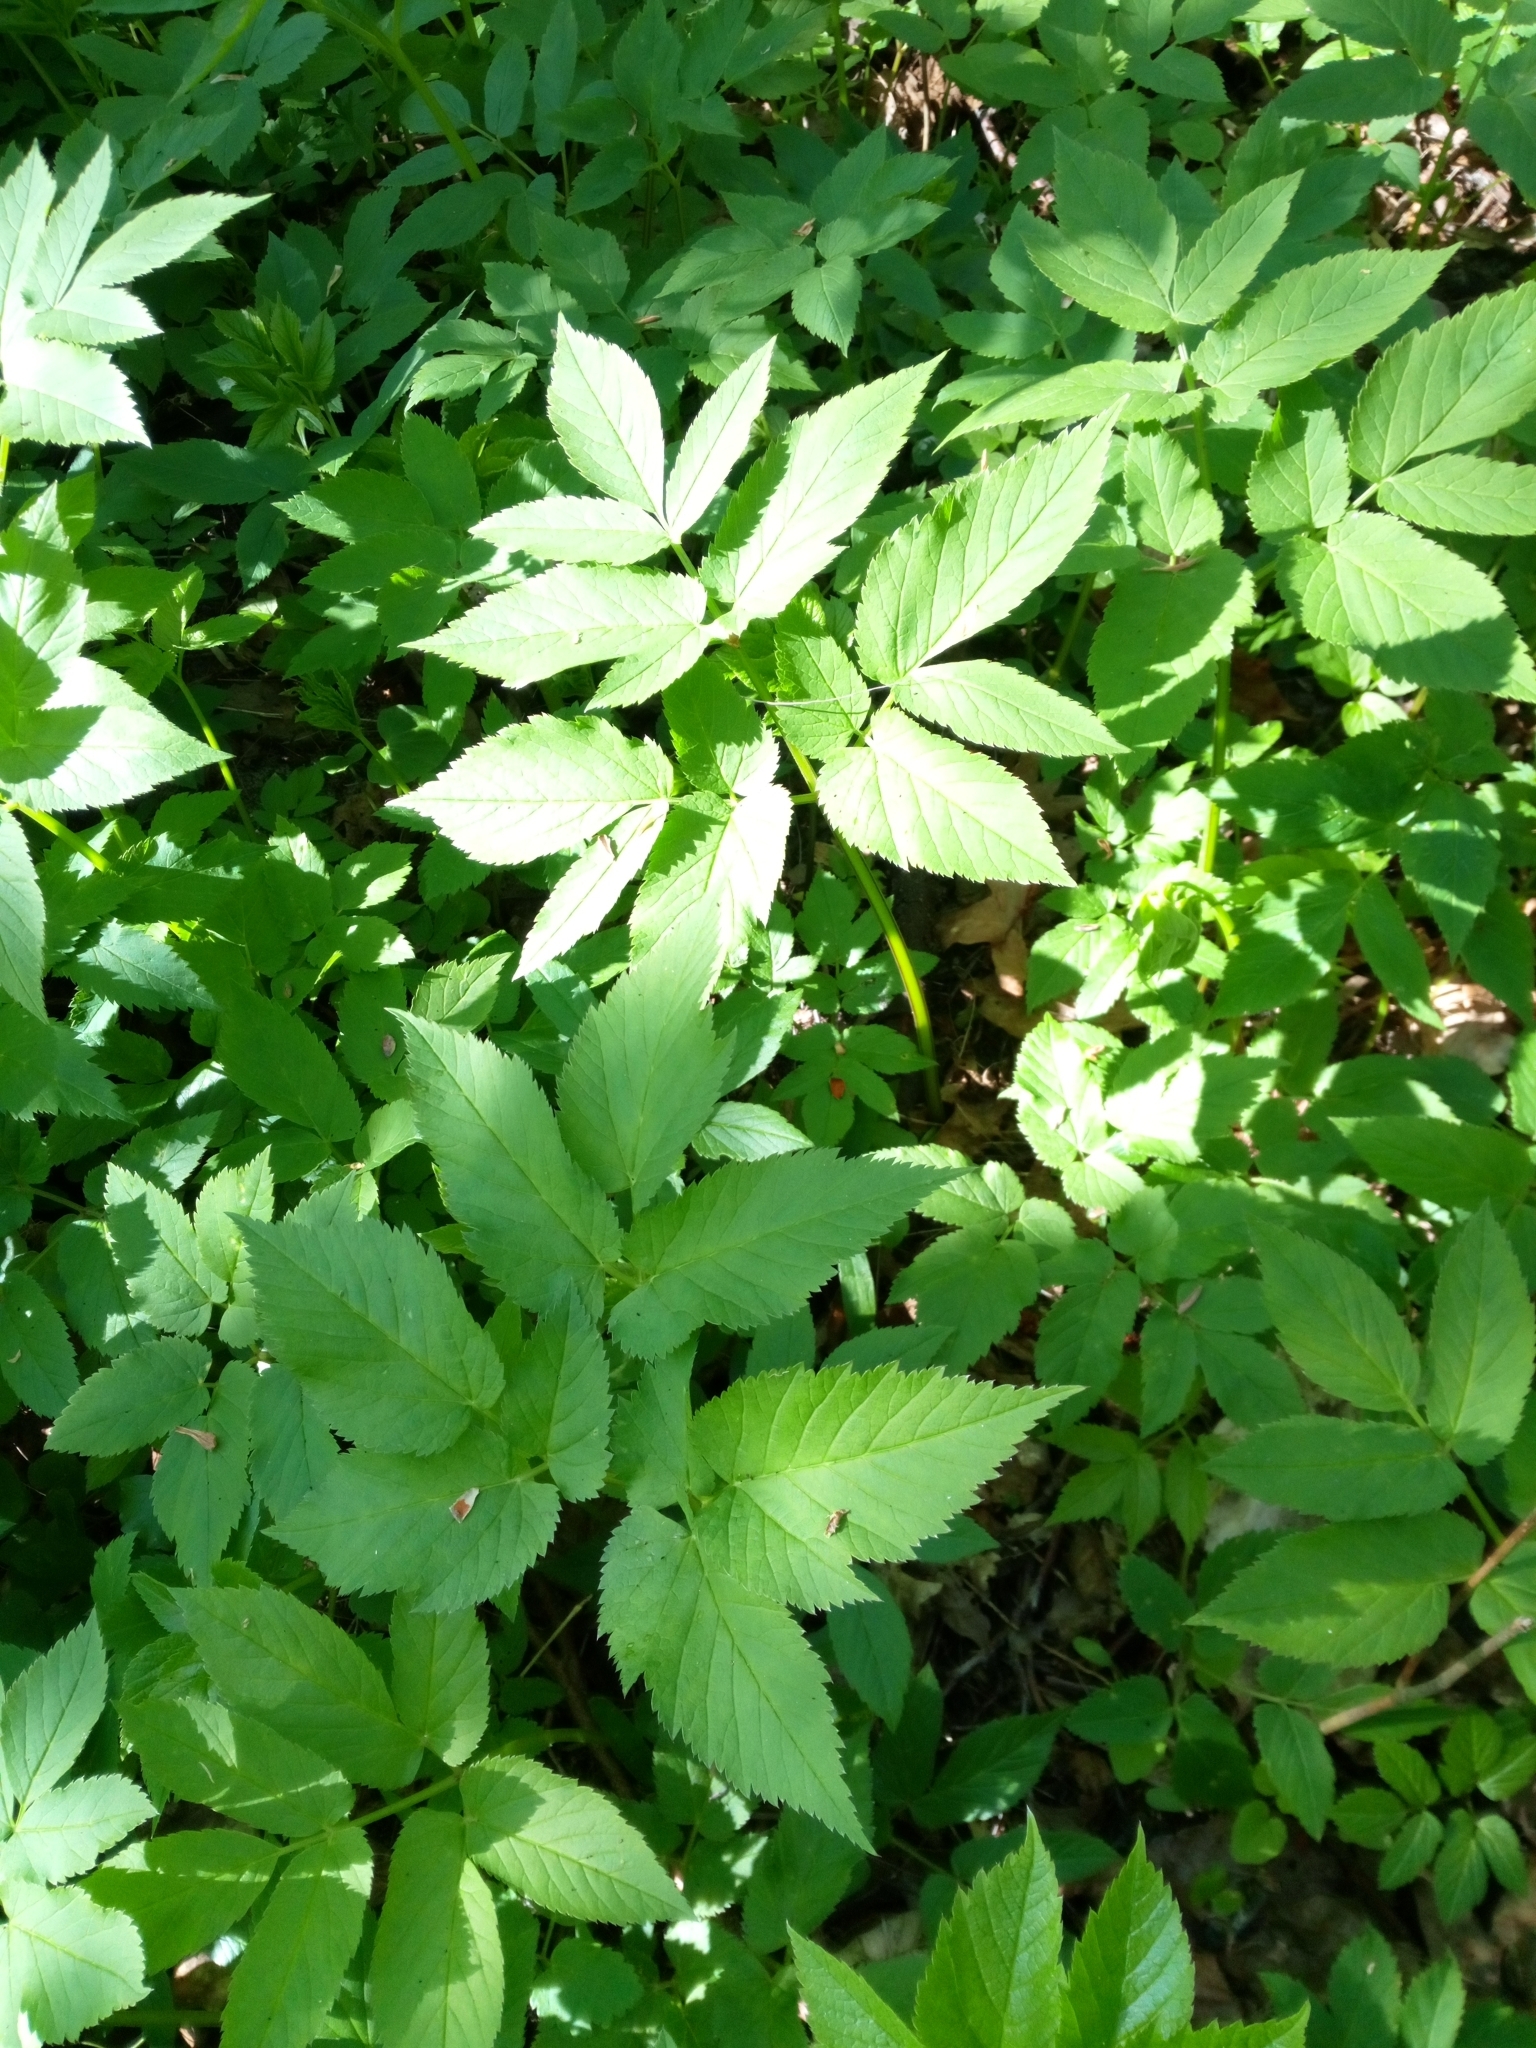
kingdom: Plantae
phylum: Tracheophyta
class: Magnoliopsida
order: Apiales
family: Apiaceae
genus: Aegopodium
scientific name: Aegopodium podagraria
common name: Ground-elder
